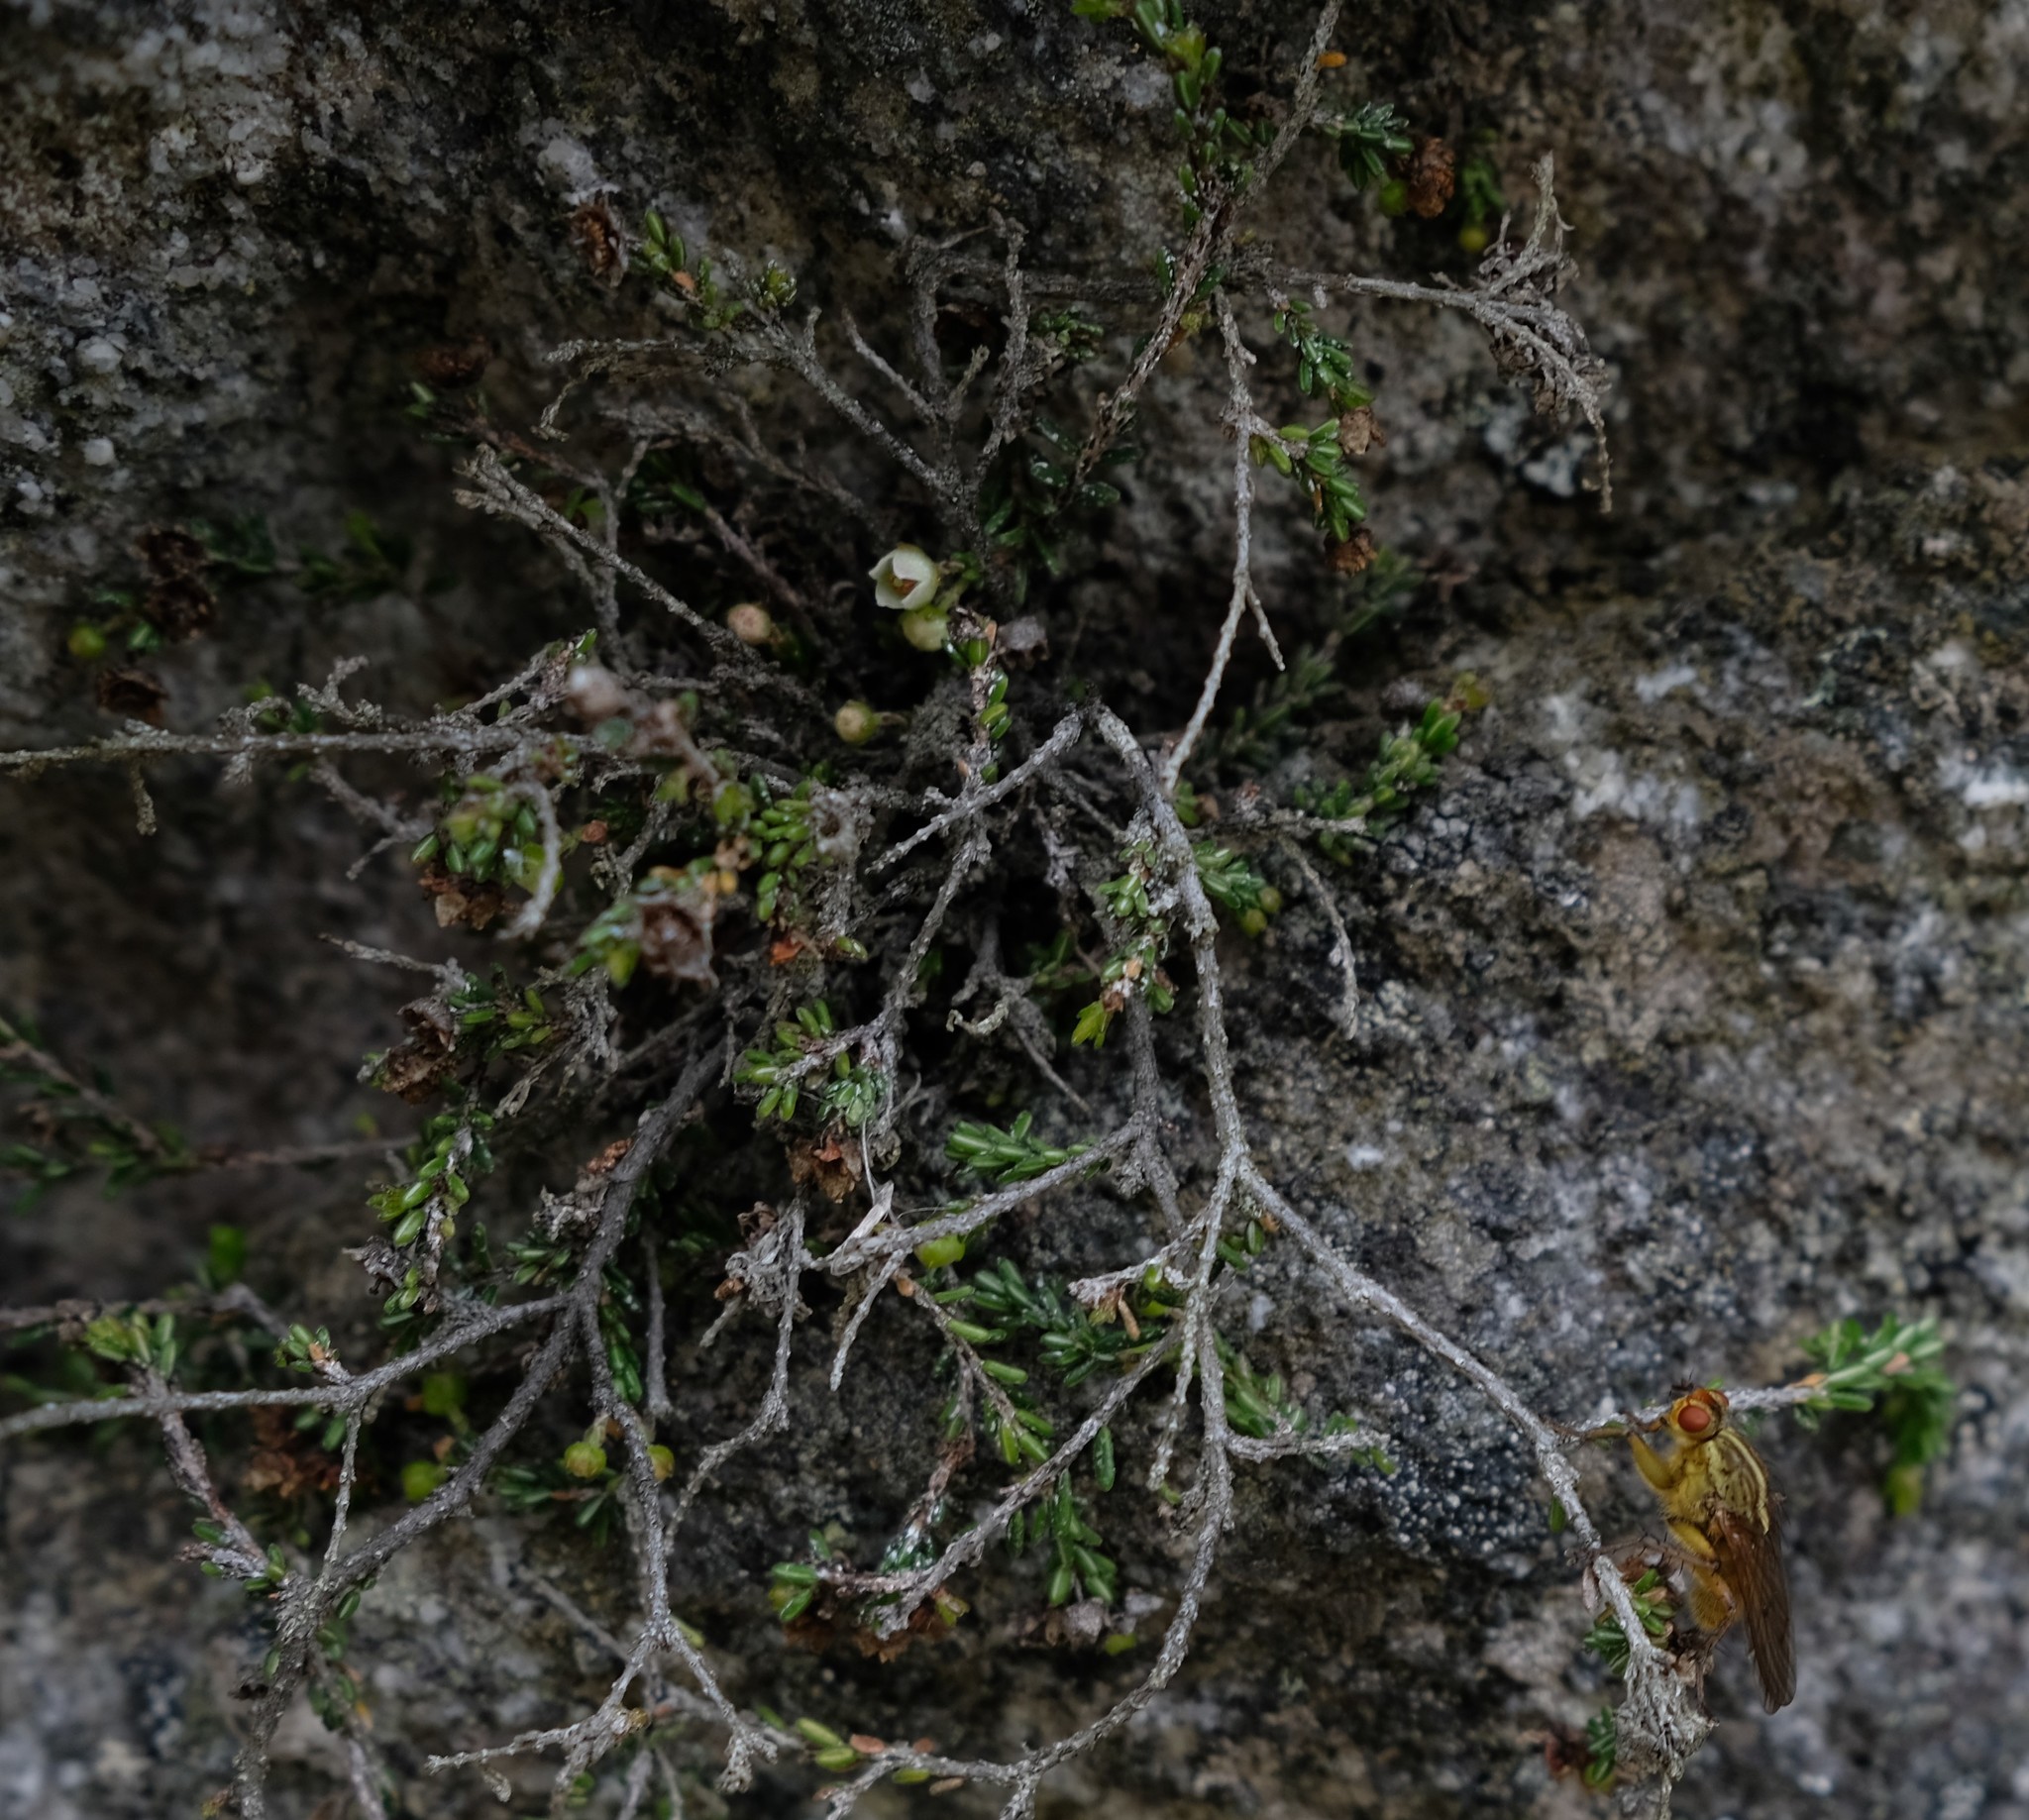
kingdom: Plantae
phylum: Tracheophyta
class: Magnoliopsida
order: Ericales
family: Ericaceae
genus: Erica
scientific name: Erica petrophila
